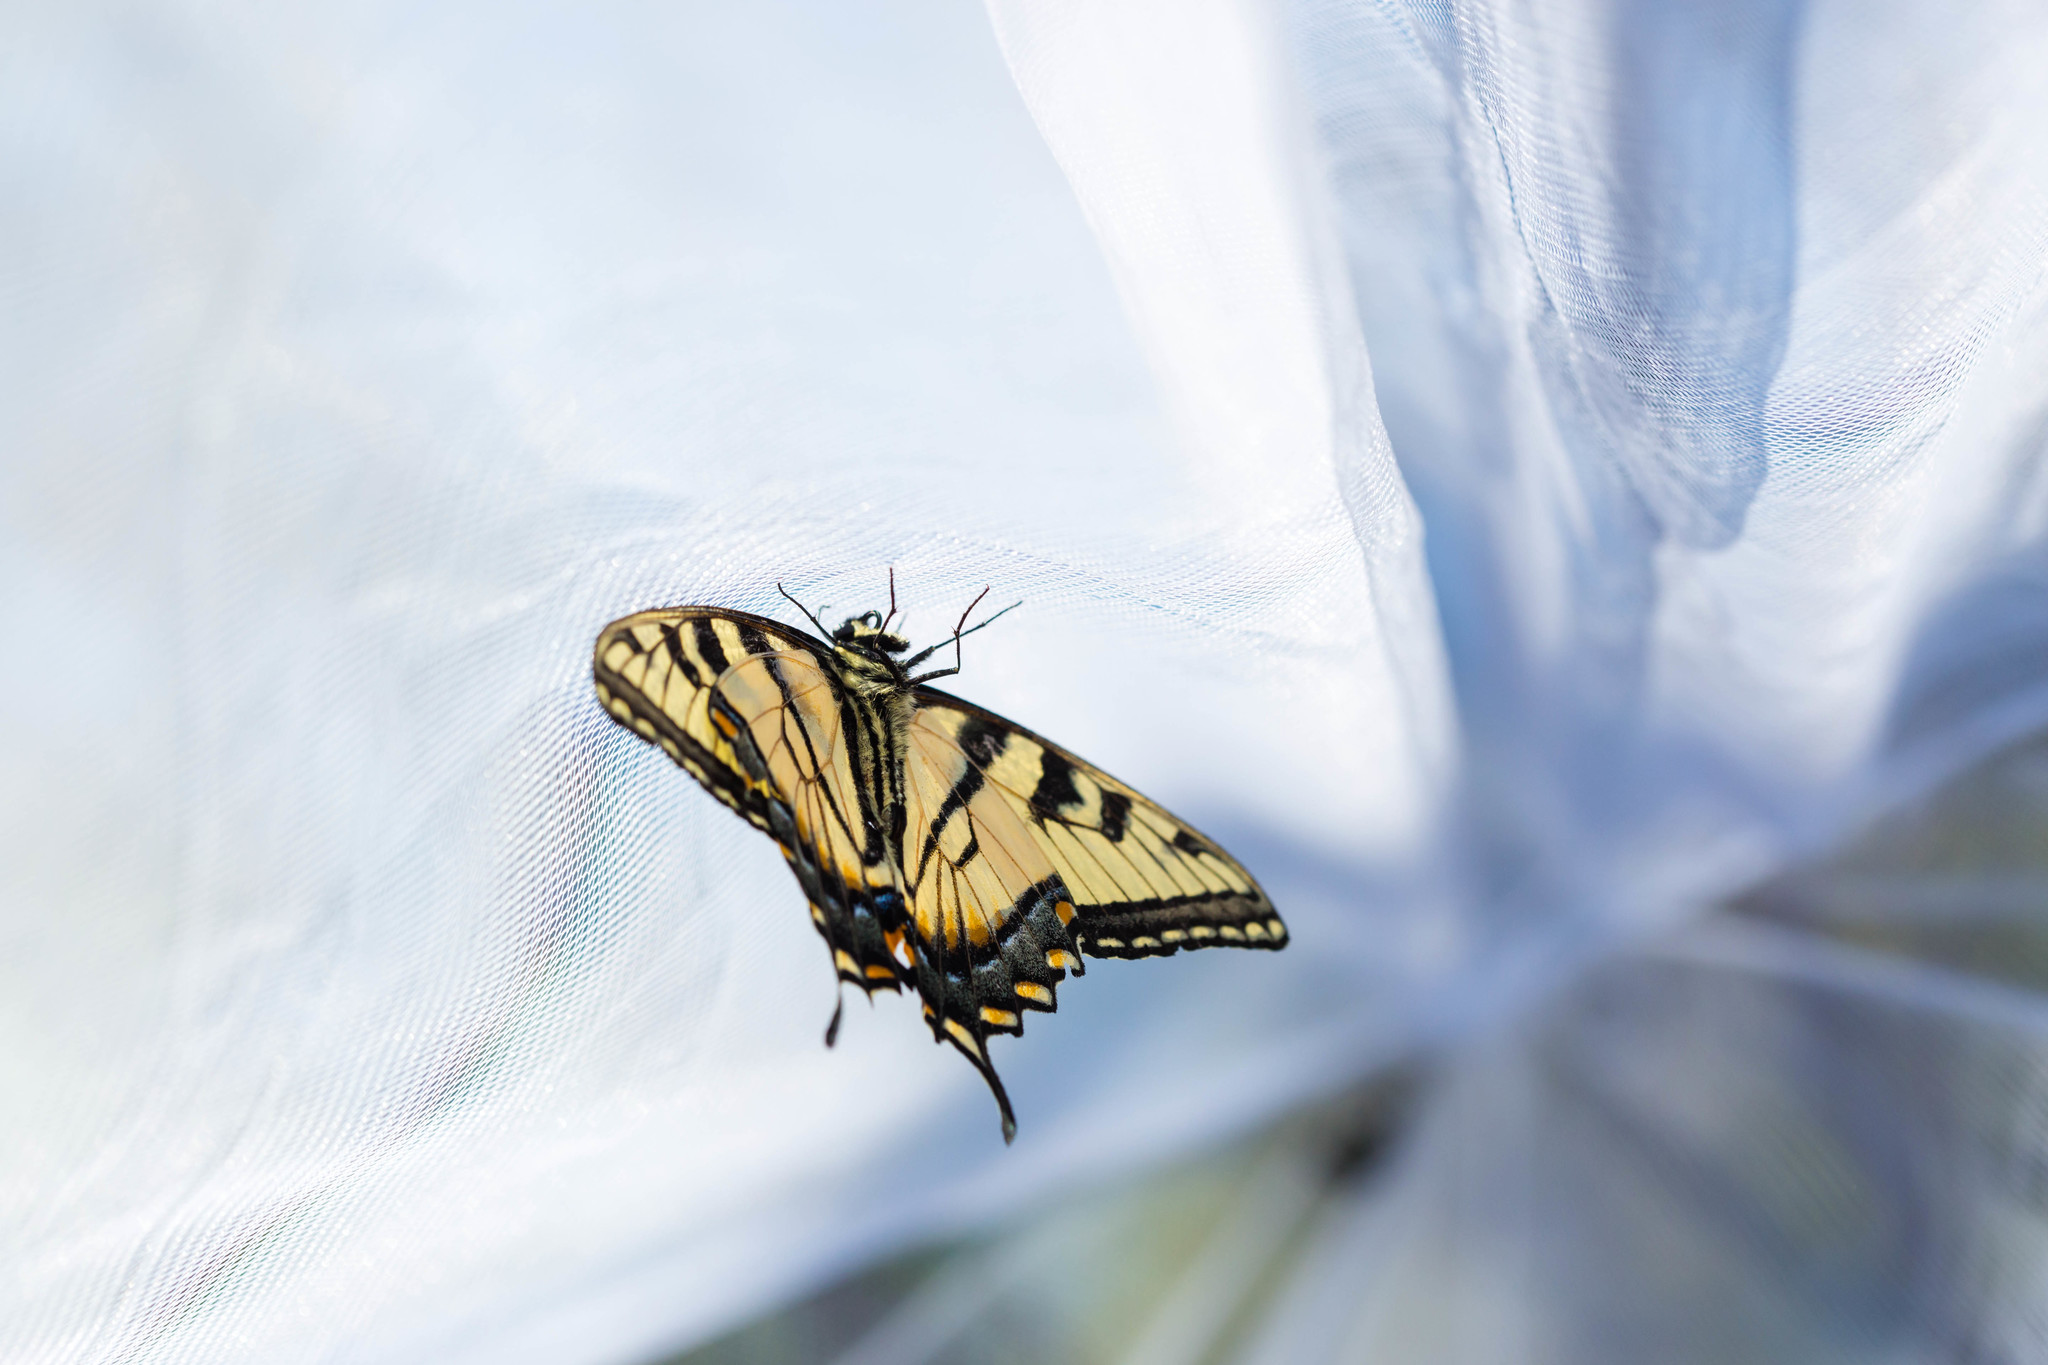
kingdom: Animalia
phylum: Arthropoda
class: Insecta
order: Lepidoptera
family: Papilionidae
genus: Papilio
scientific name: Papilio glaucus
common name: Tiger swallowtail
